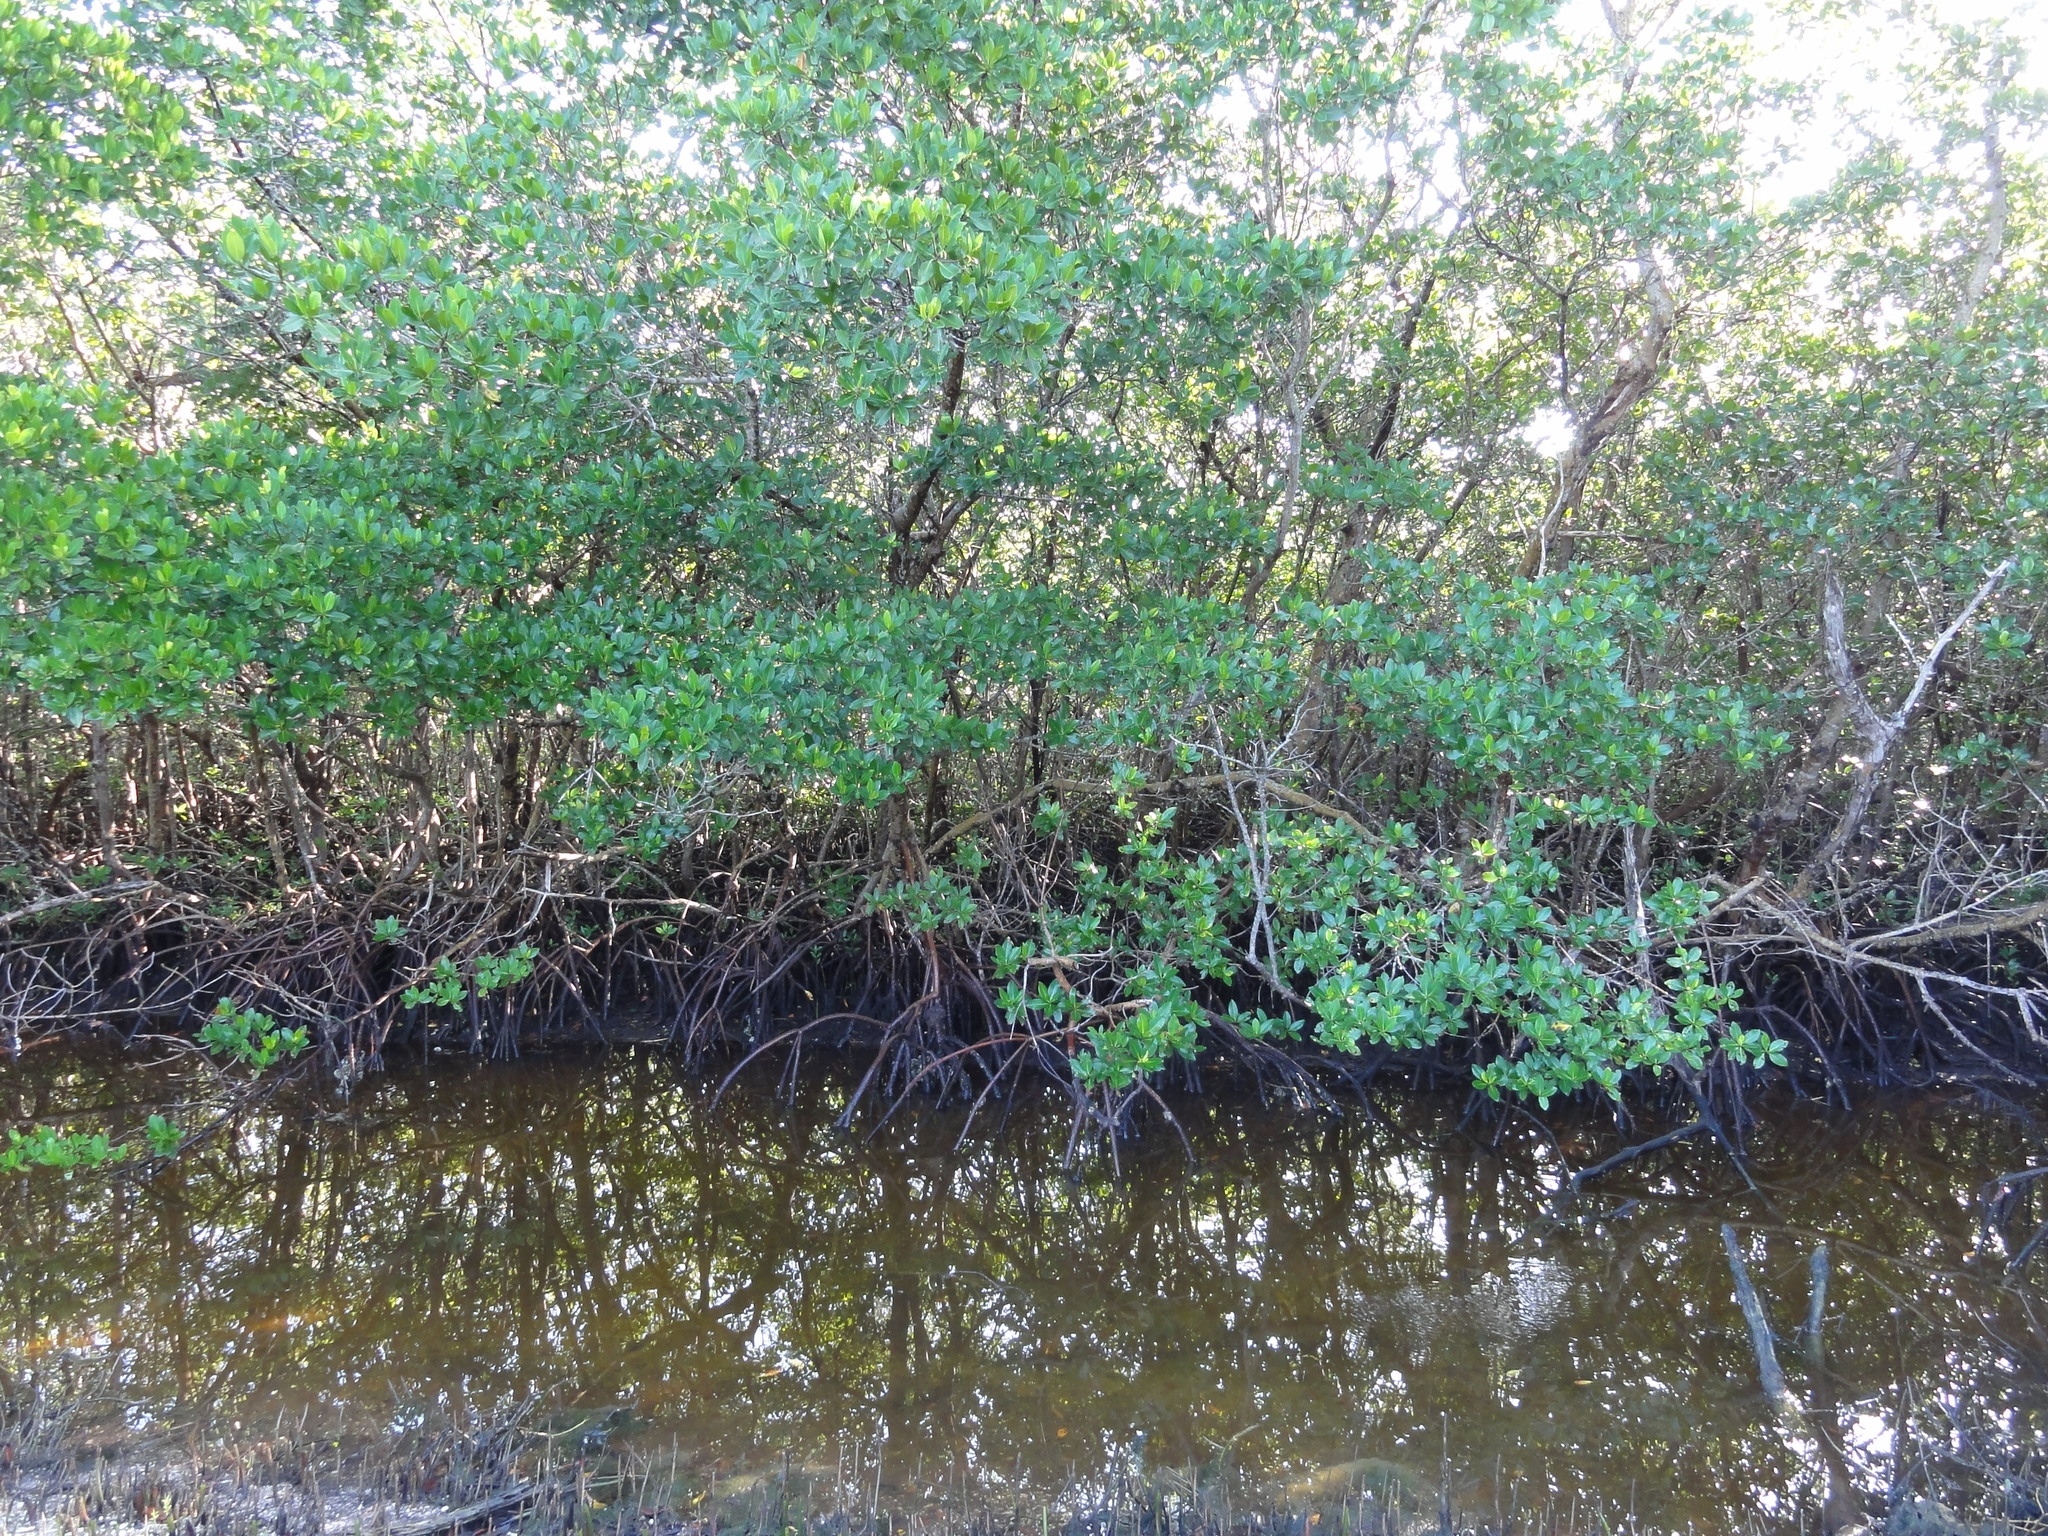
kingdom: Plantae
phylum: Tracheophyta
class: Magnoliopsida
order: Malpighiales
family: Rhizophoraceae
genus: Rhizophora
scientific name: Rhizophora mangle
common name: Red mangrove
